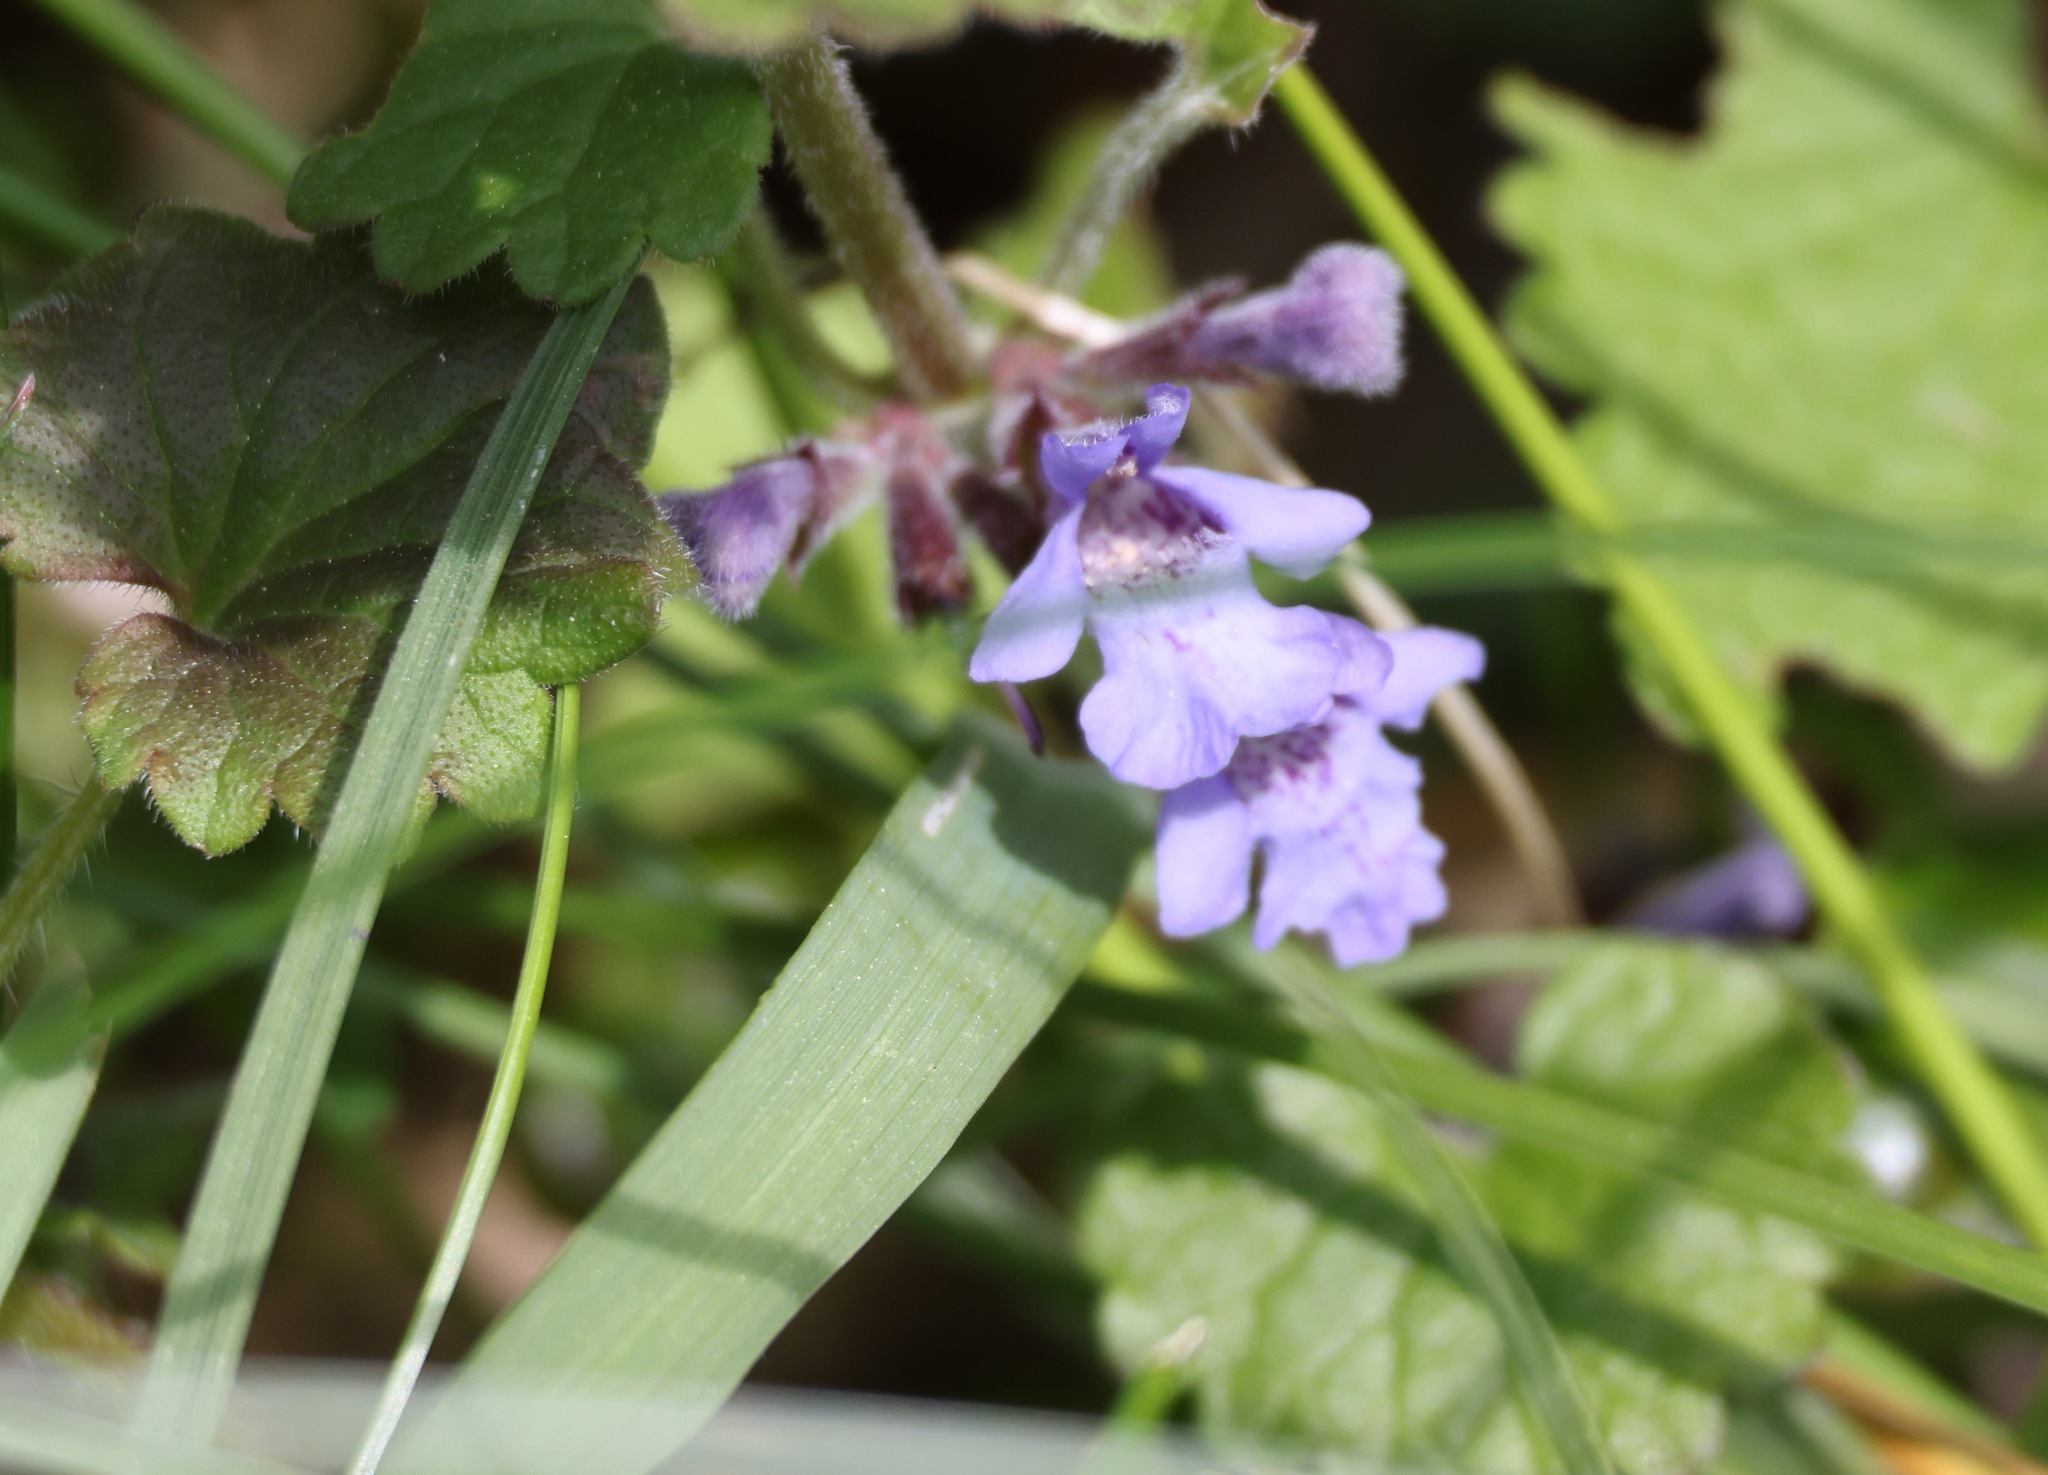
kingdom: Plantae
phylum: Tracheophyta
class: Magnoliopsida
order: Lamiales
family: Lamiaceae
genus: Glechoma
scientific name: Glechoma hederacea
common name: Ground ivy
